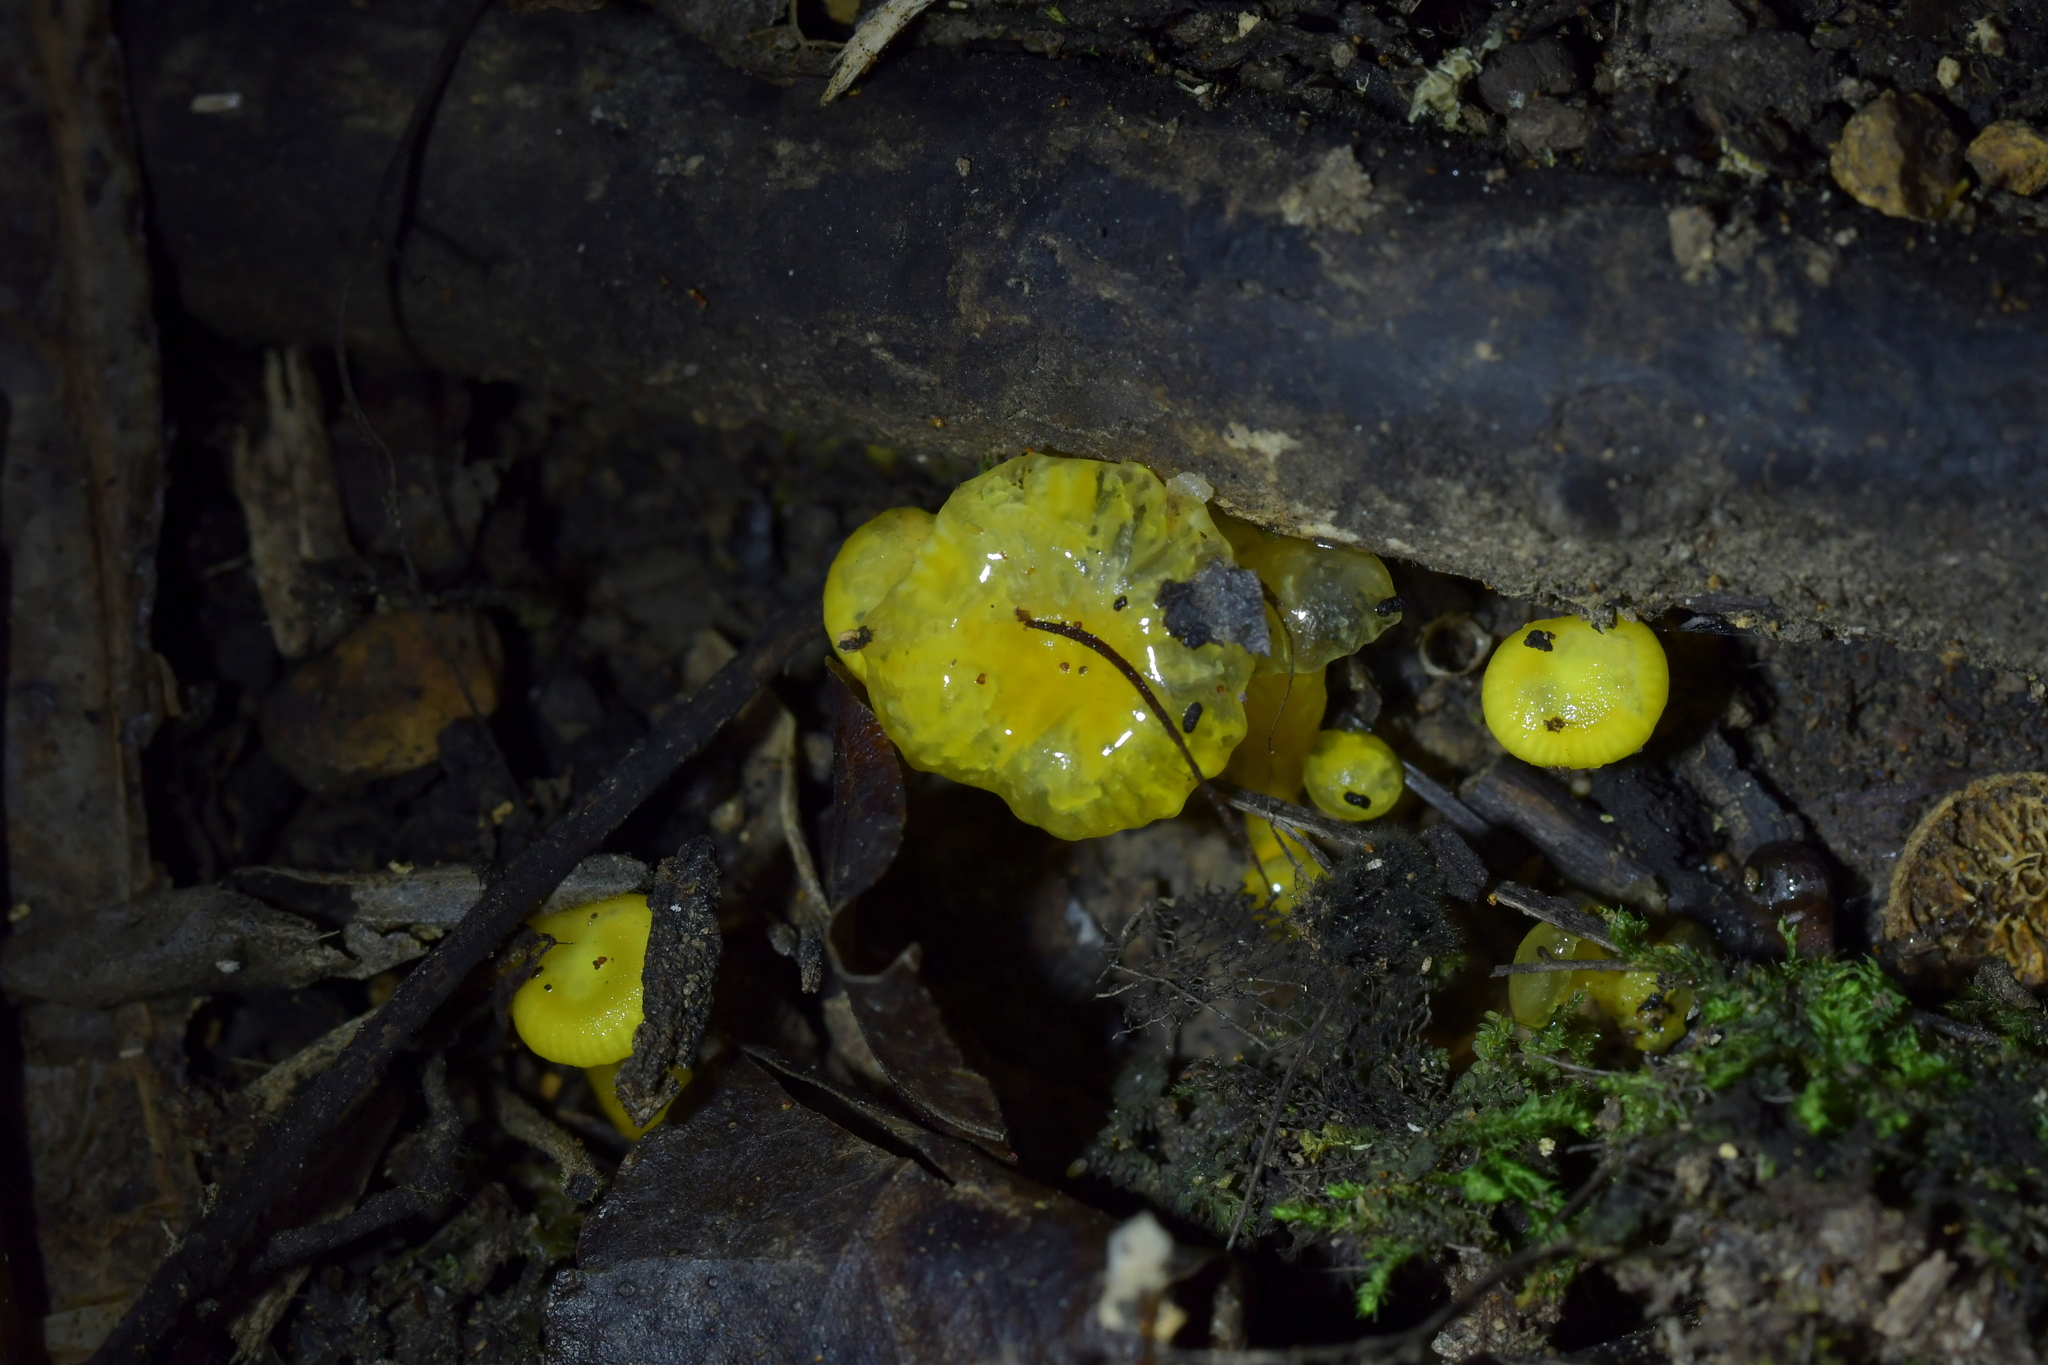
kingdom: Fungi
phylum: Basidiomycota
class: Agaricomycetes
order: Agaricales
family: Hygrophoraceae
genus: Gloioxanthomyces
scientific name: Gloioxanthomyces
